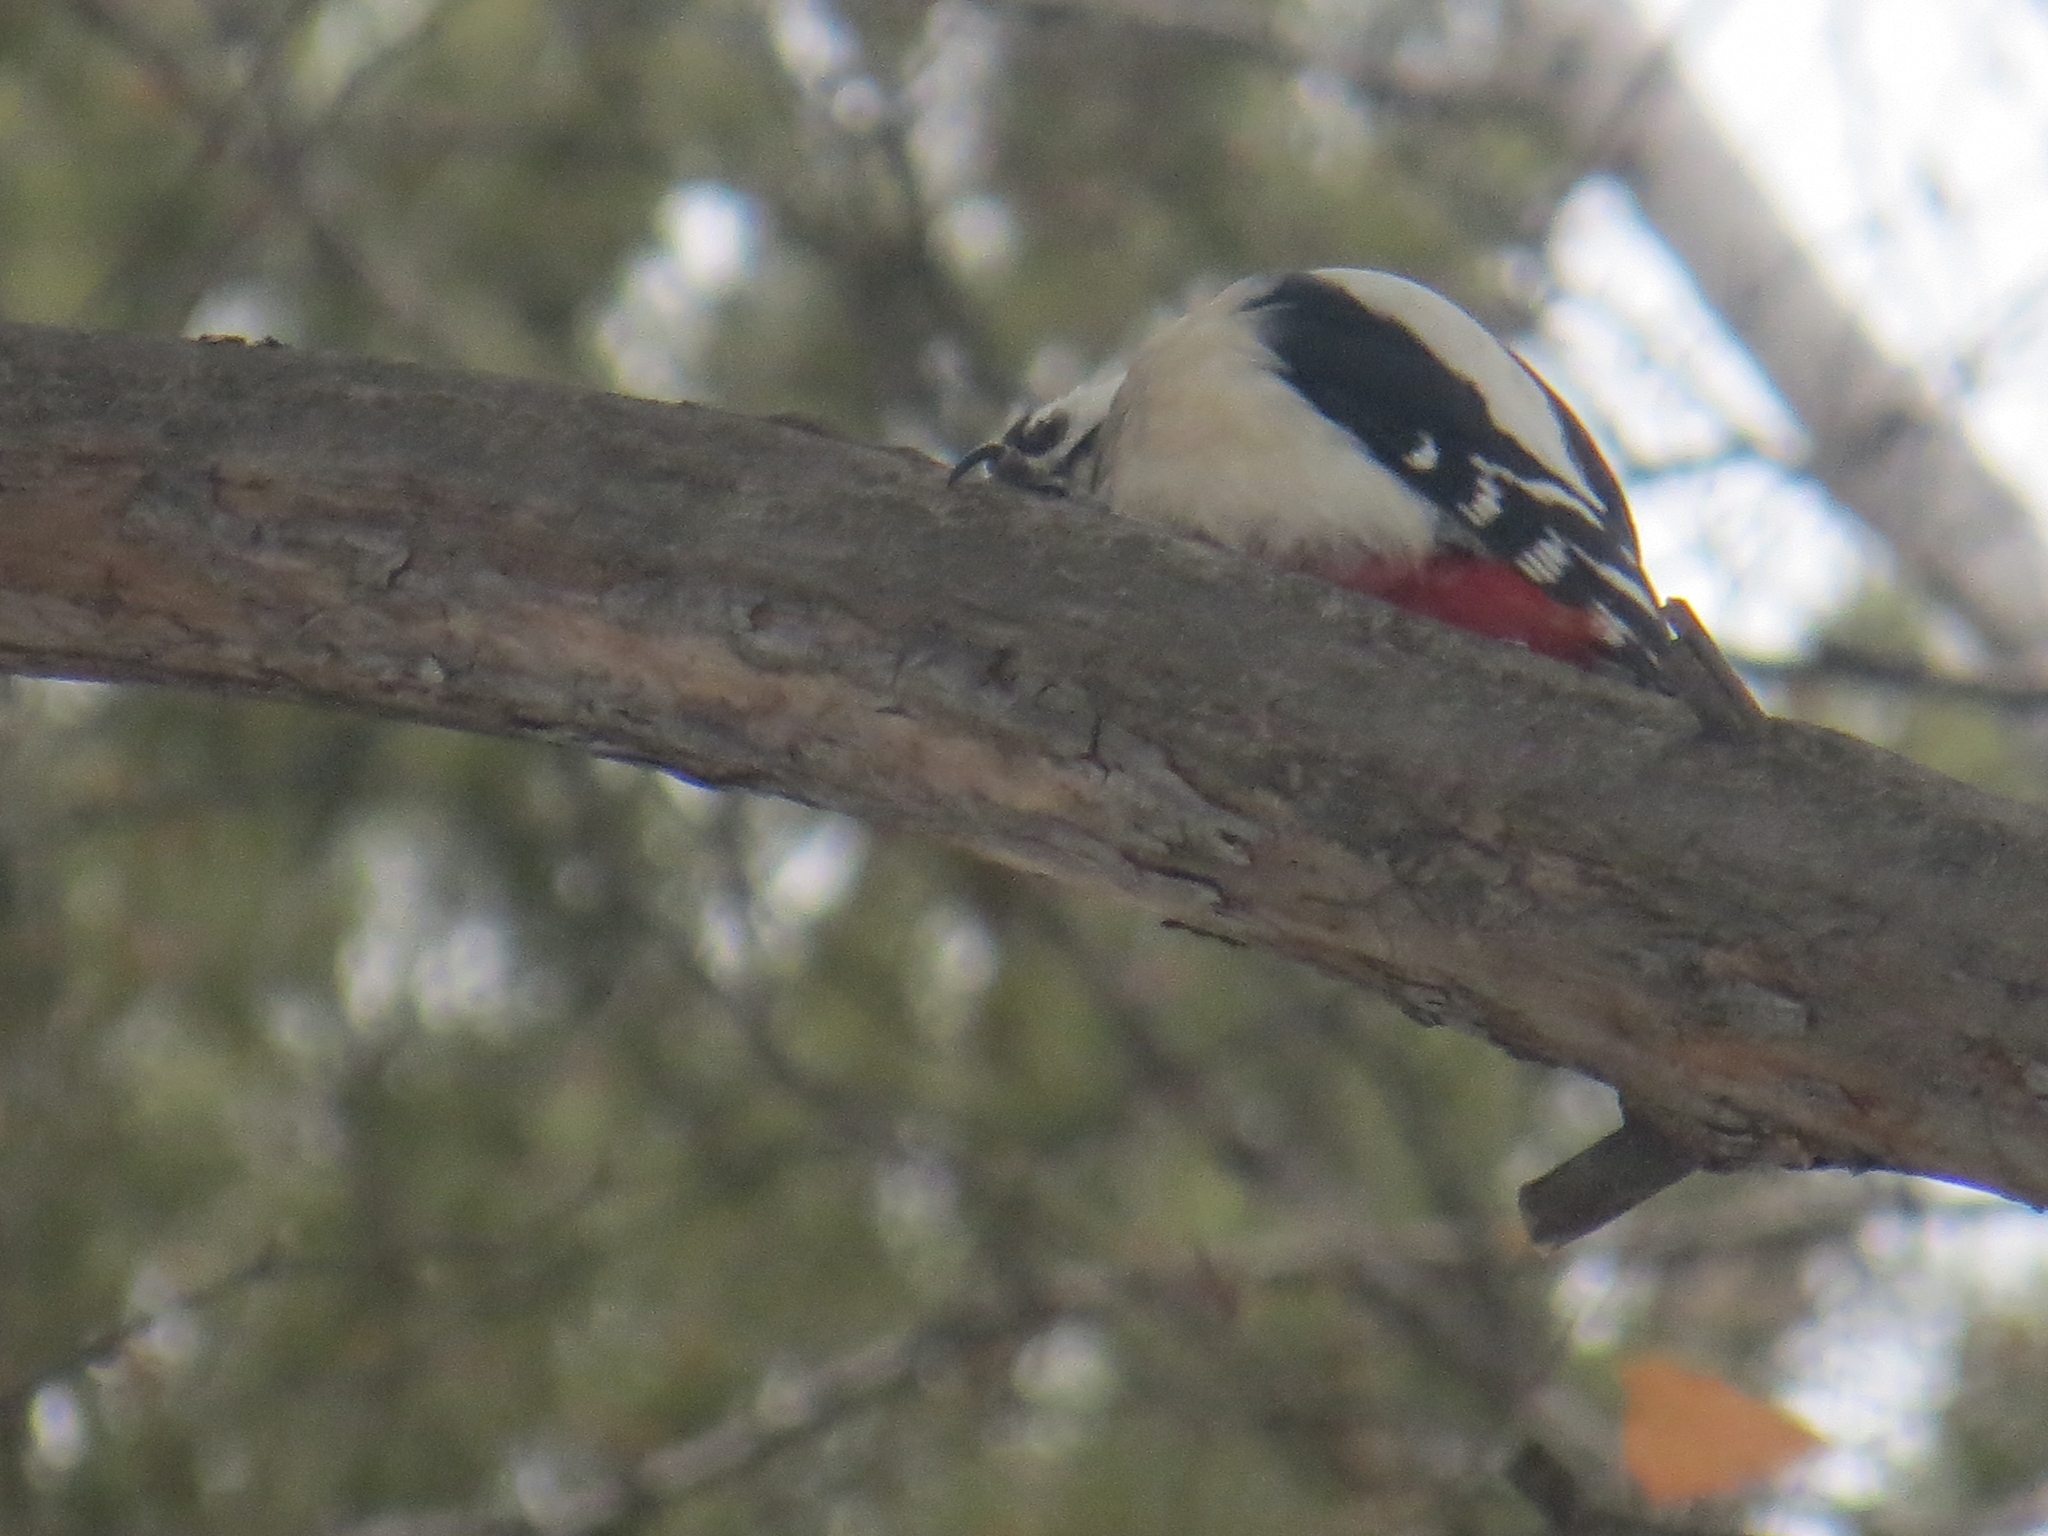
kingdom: Animalia
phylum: Chordata
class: Aves
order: Piciformes
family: Picidae
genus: Dendrocopos
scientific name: Dendrocopos major
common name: Great spotted woodpecker
